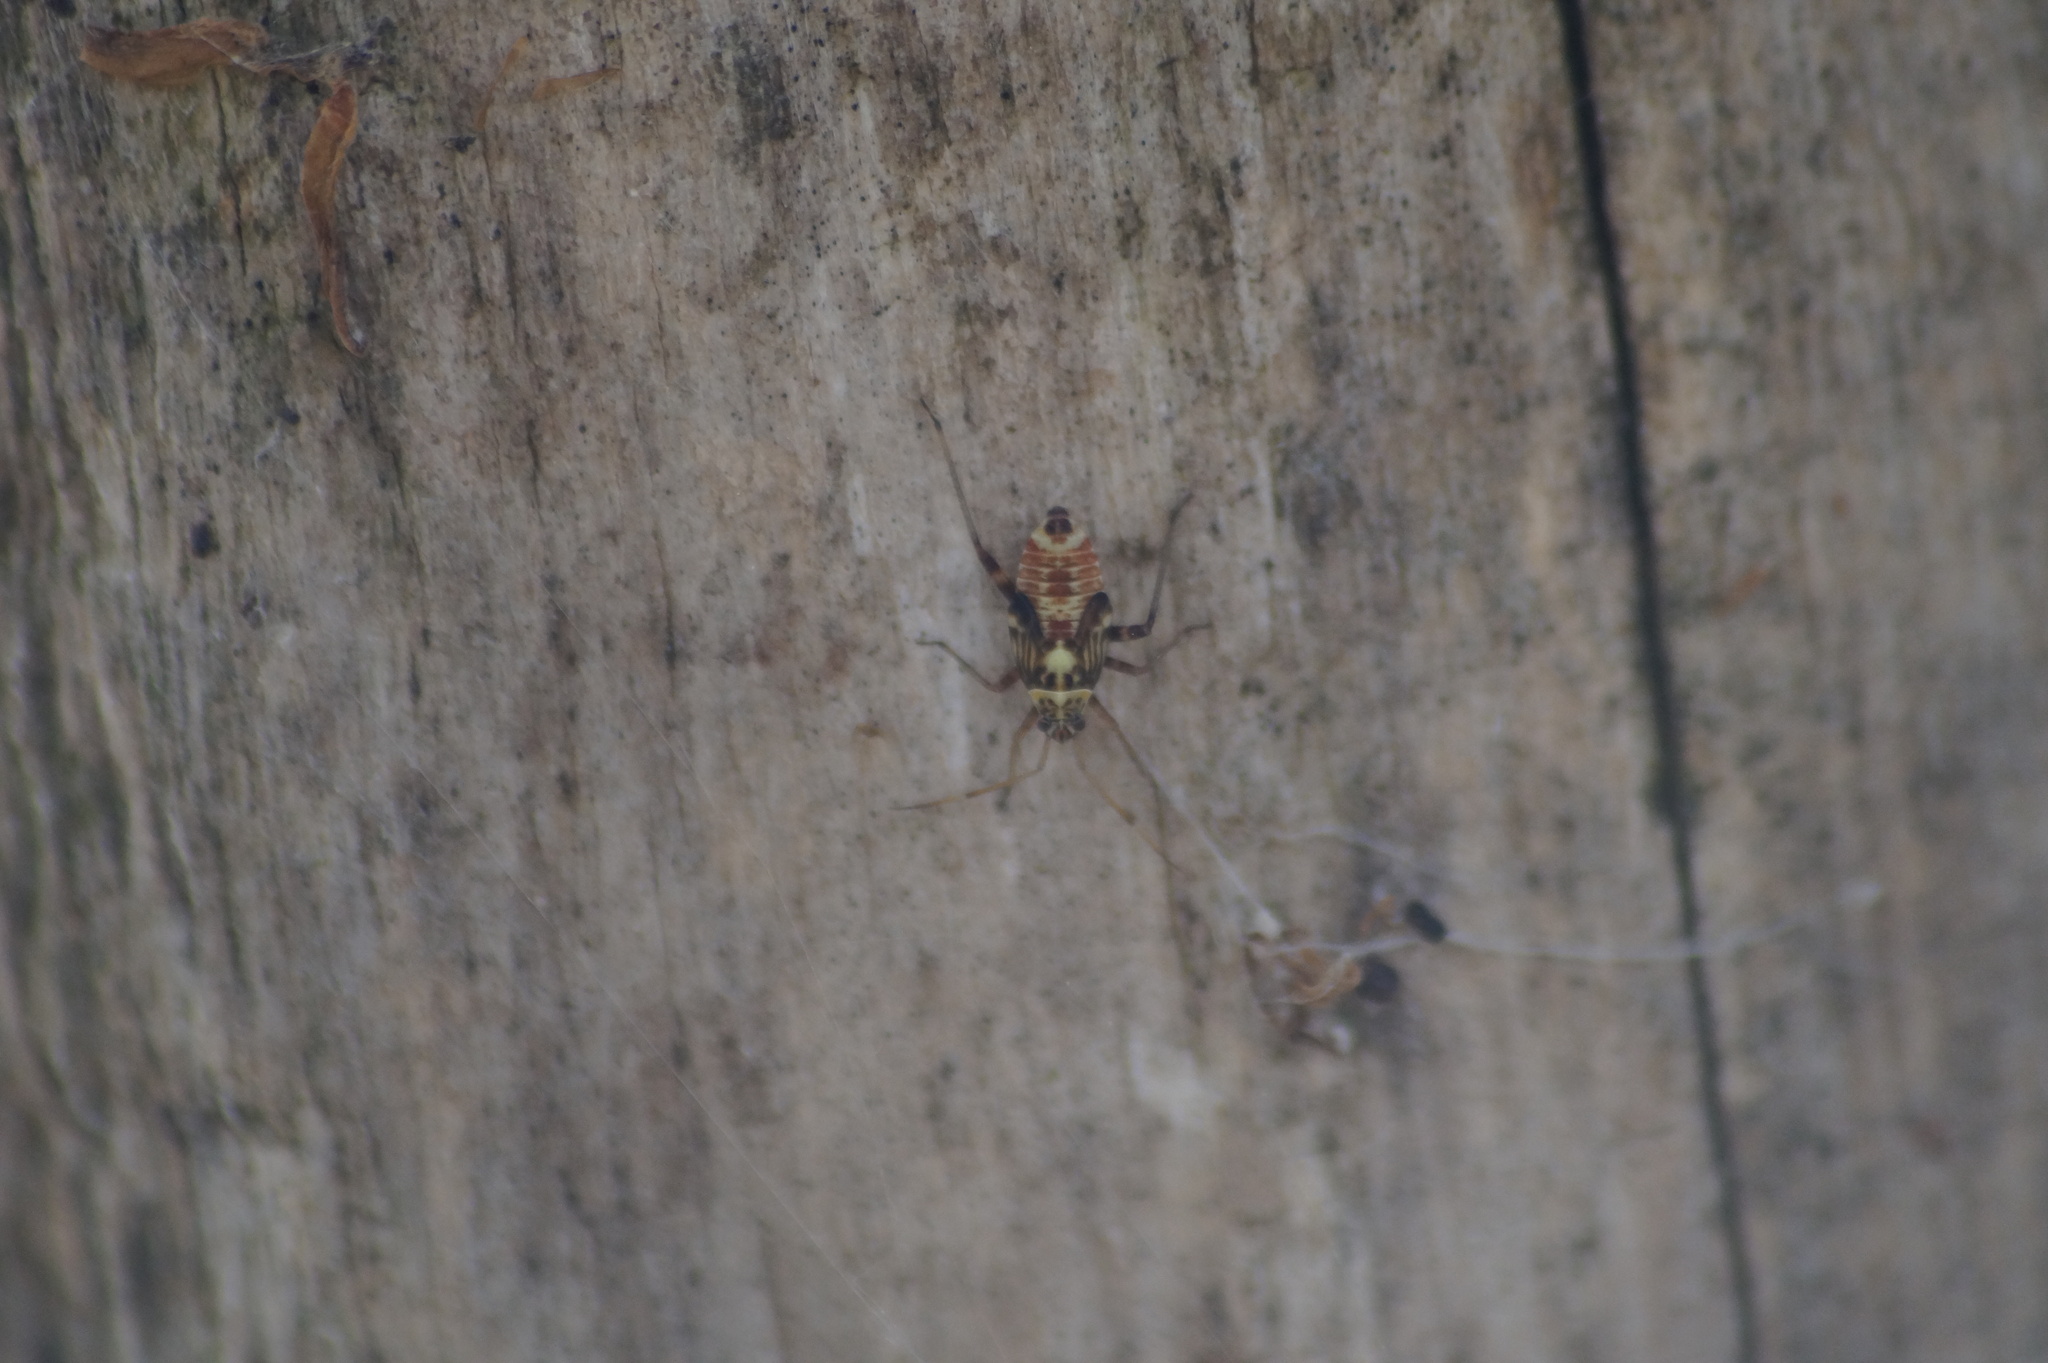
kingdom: Animalia
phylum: Arthropoda
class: Insecta
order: Hemiptera
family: Miridae
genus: Rhabdomiris
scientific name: Rhabdomiris striatellus
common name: Plant bug
